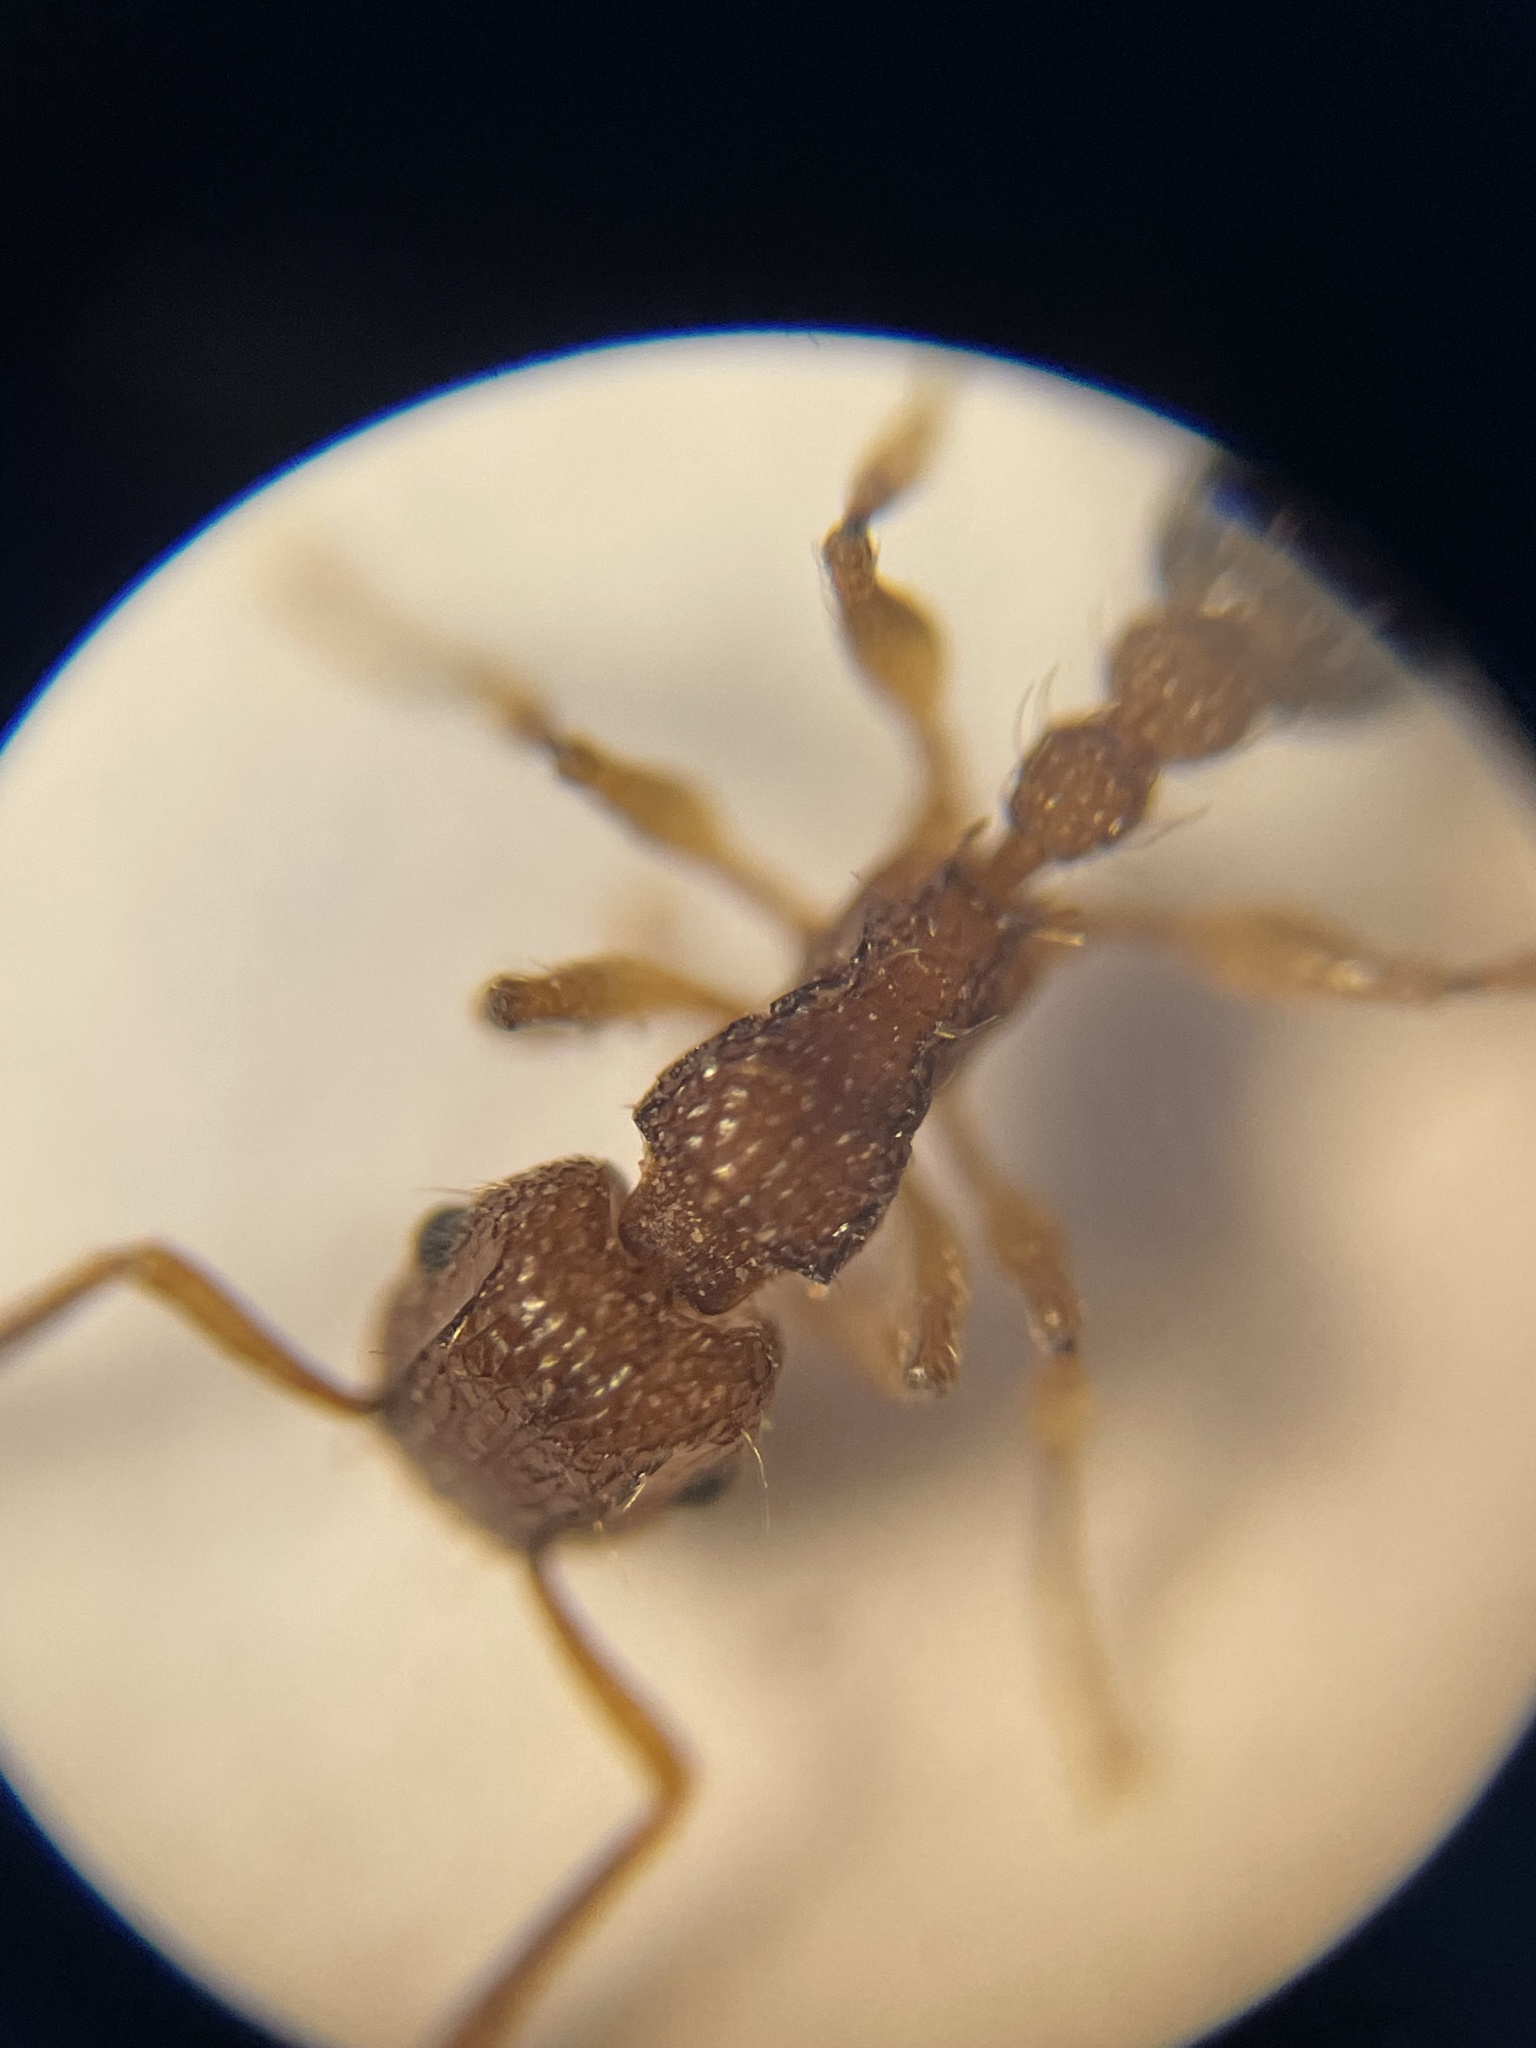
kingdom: Animalia
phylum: Arthropoda
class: Insecta
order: Hymenoptera
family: Formicidae
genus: Tetramorium
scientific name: Tetramorium bicarinatum
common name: Guinea ant
